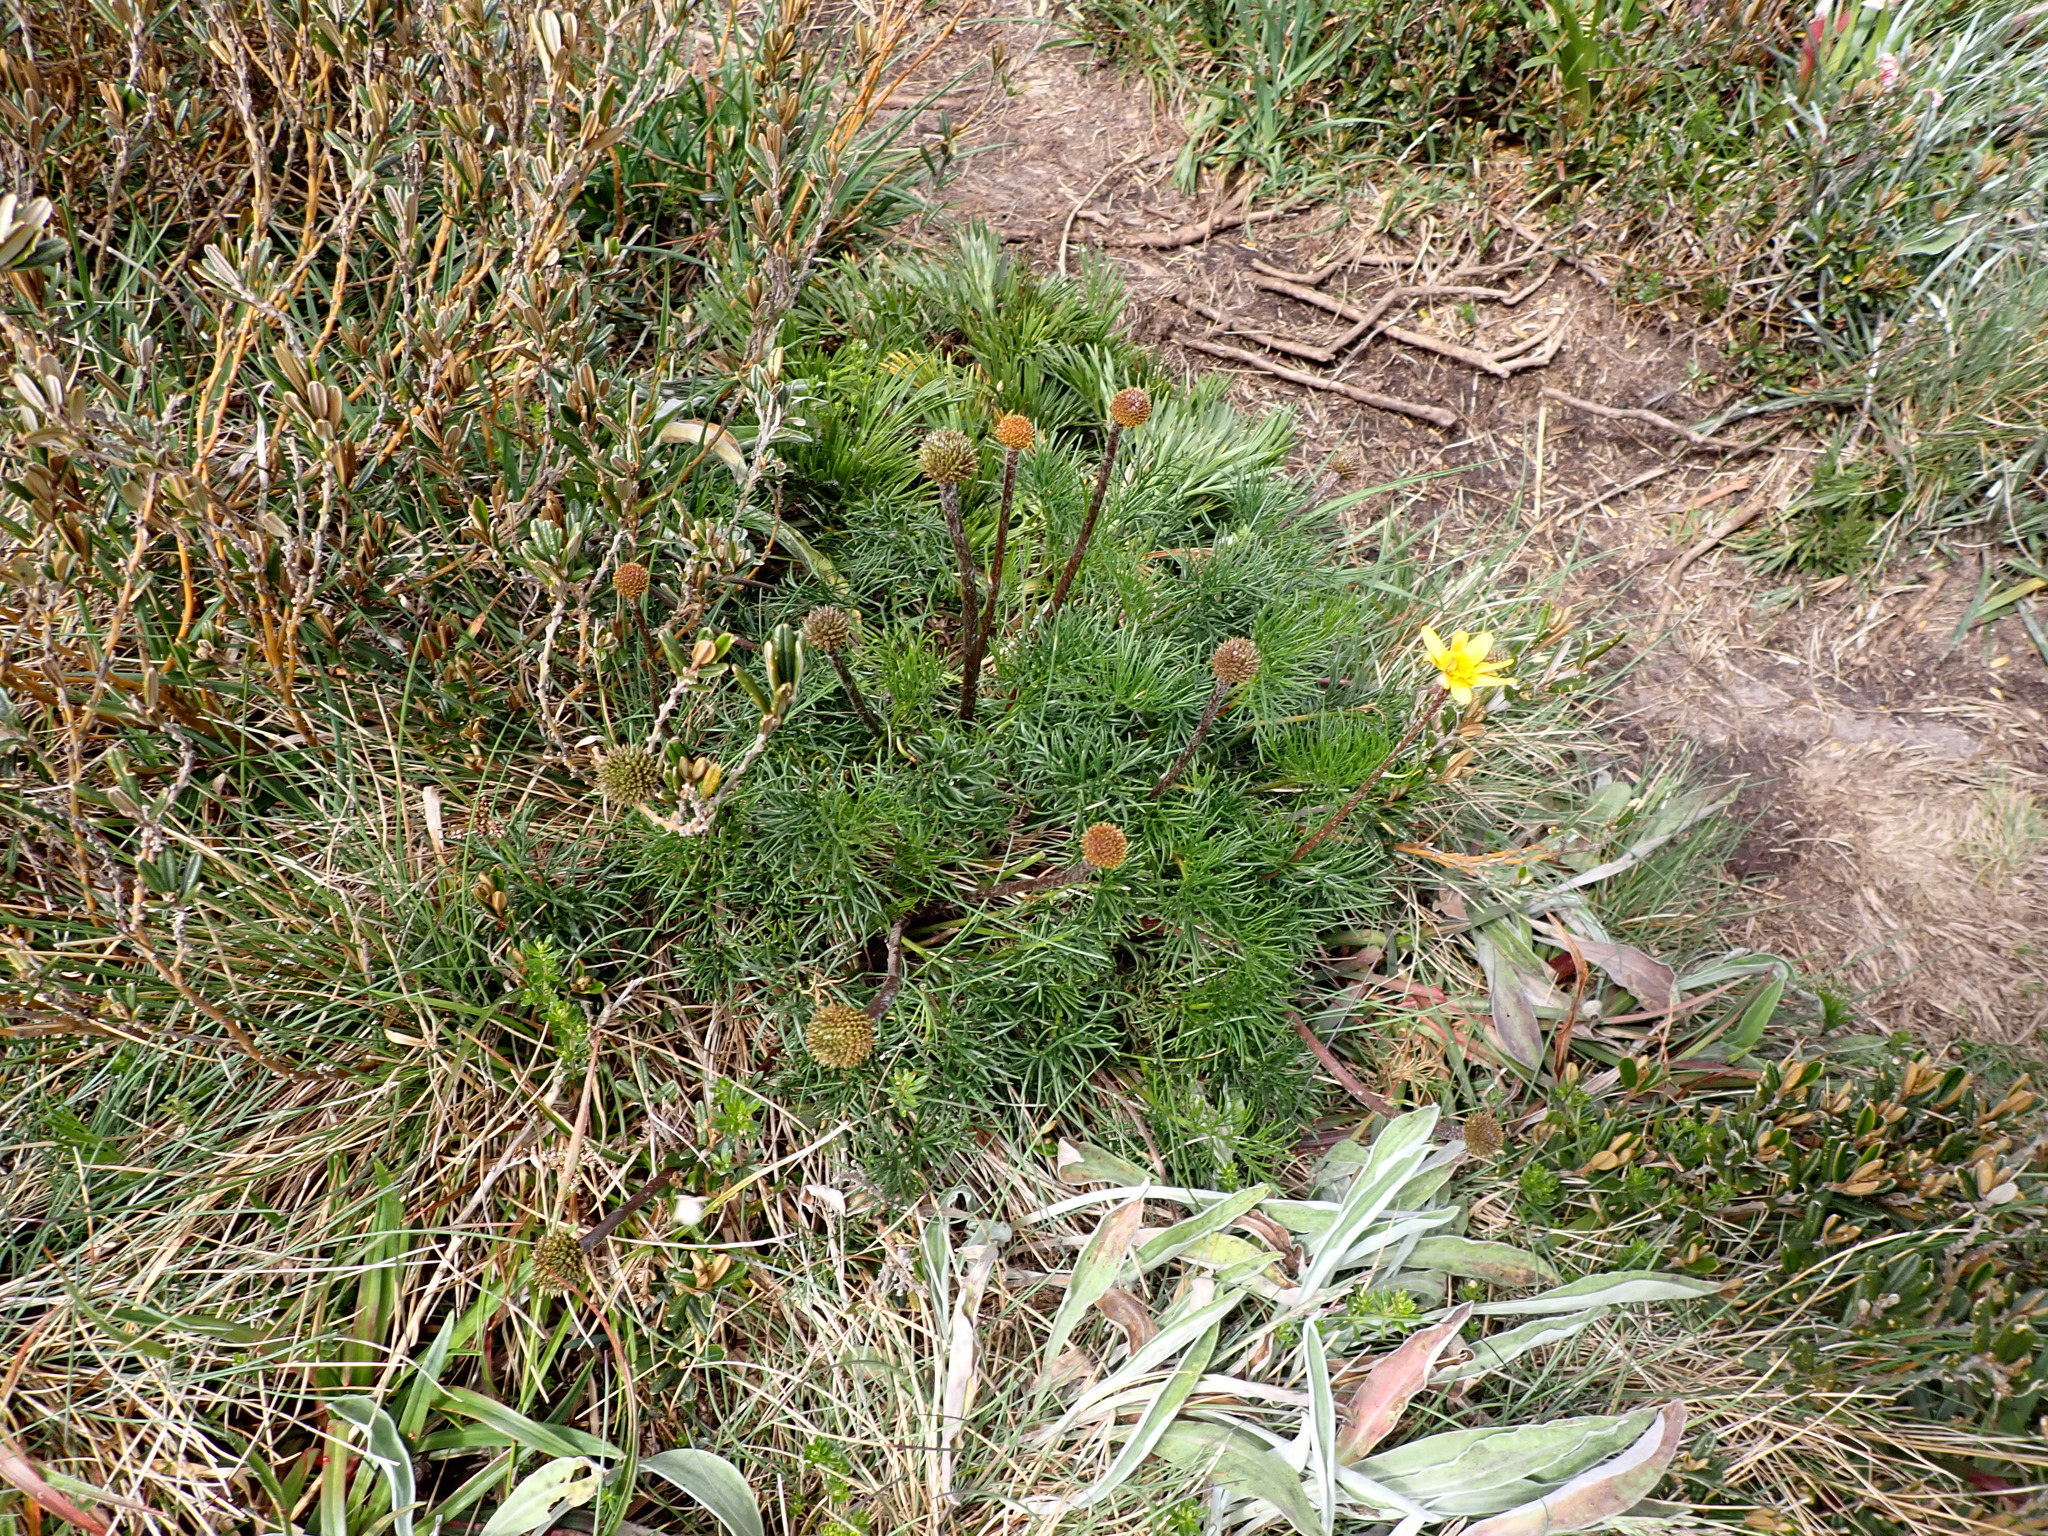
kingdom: Plantae
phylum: Tracheophyta
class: Magnoliopsida
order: Ranunculales
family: Ranunculaceae
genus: Ranunculus
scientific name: Ranunculus gunnianus
